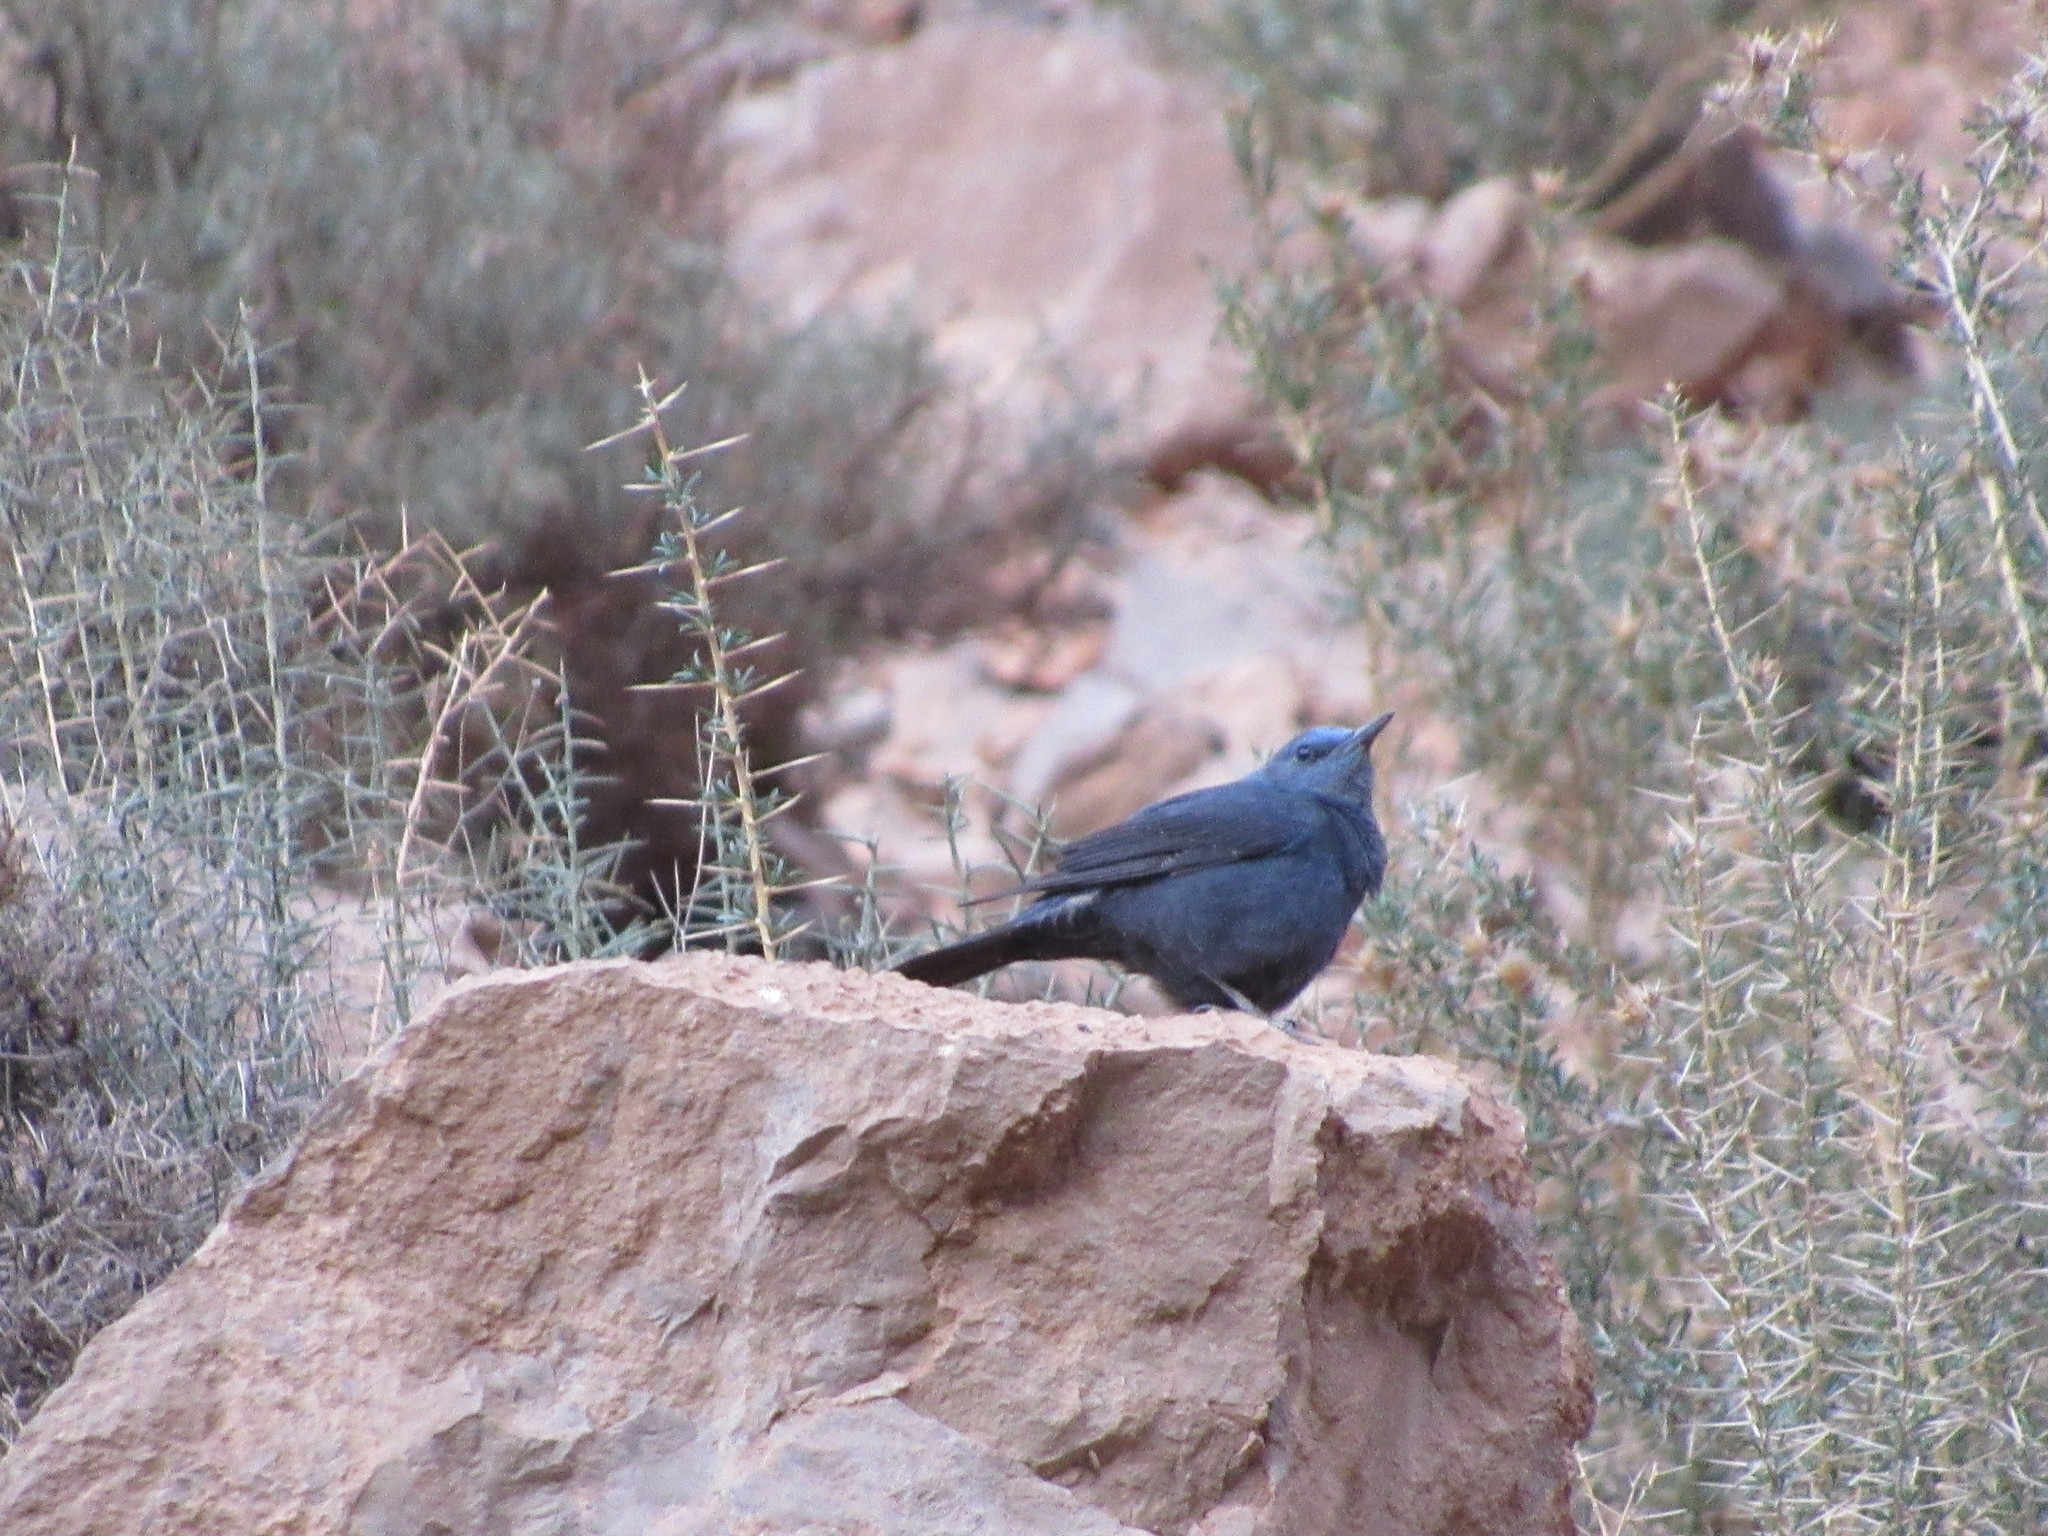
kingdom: Animalia
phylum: Chordata
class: Aves
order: Passeriformes
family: Muscicapidae
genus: Monticola
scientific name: Monticola solitarius
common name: Blue rock thrush
